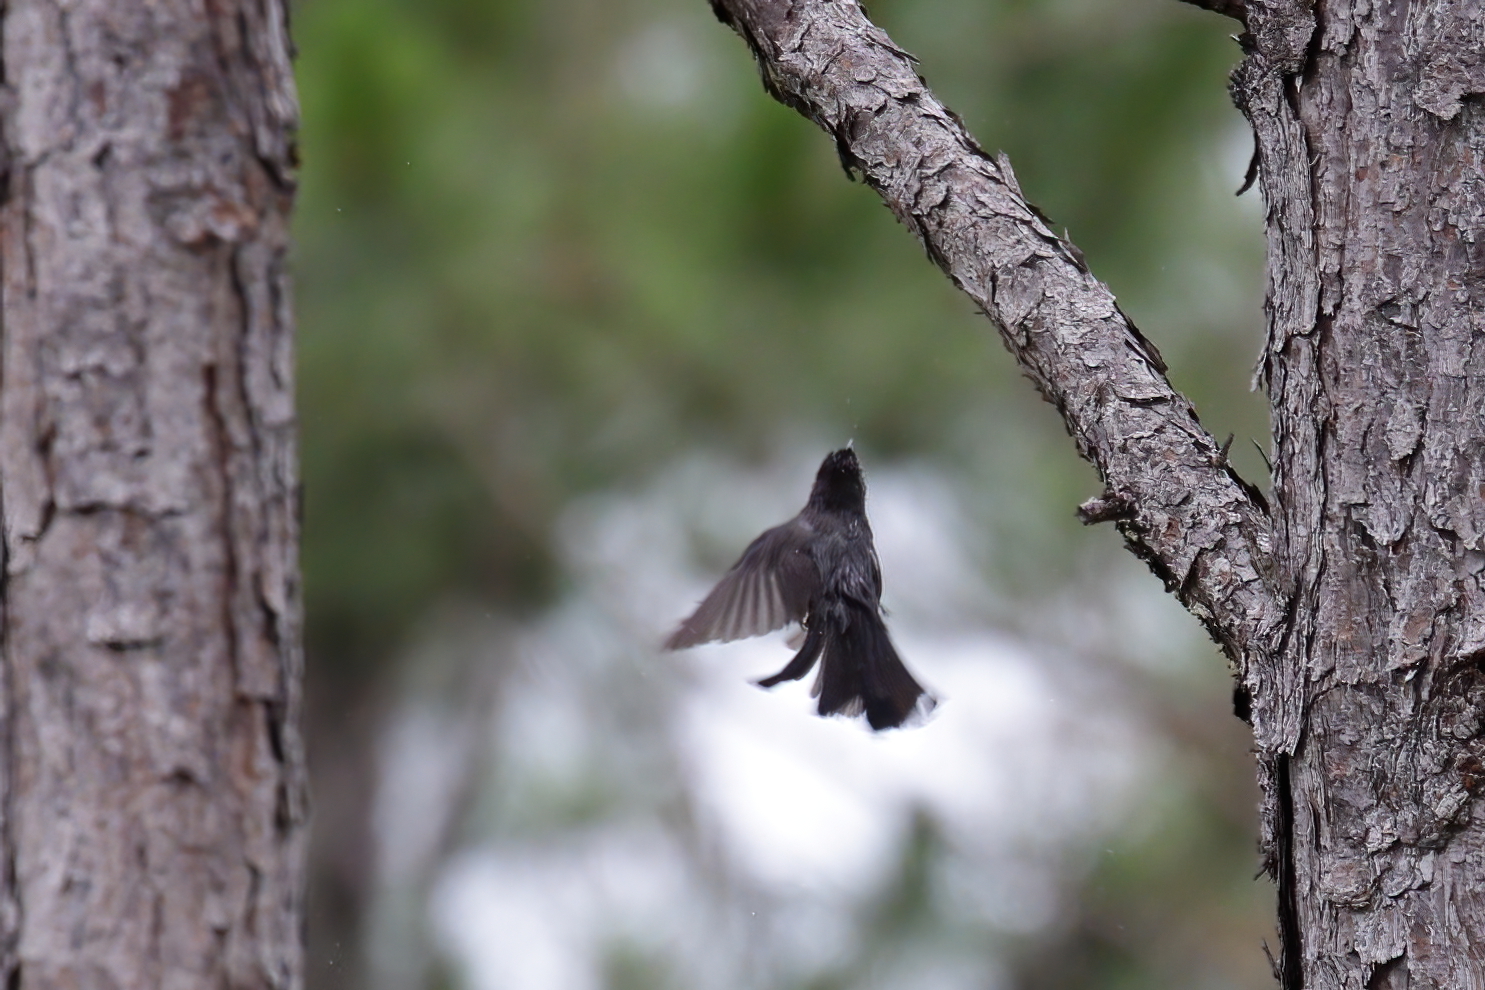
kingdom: Animalia
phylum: Chordata
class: Aves
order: Passeriformes
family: Mimidae
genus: Dumetella
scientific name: Dumetella carolinensis
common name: Gray catbird
